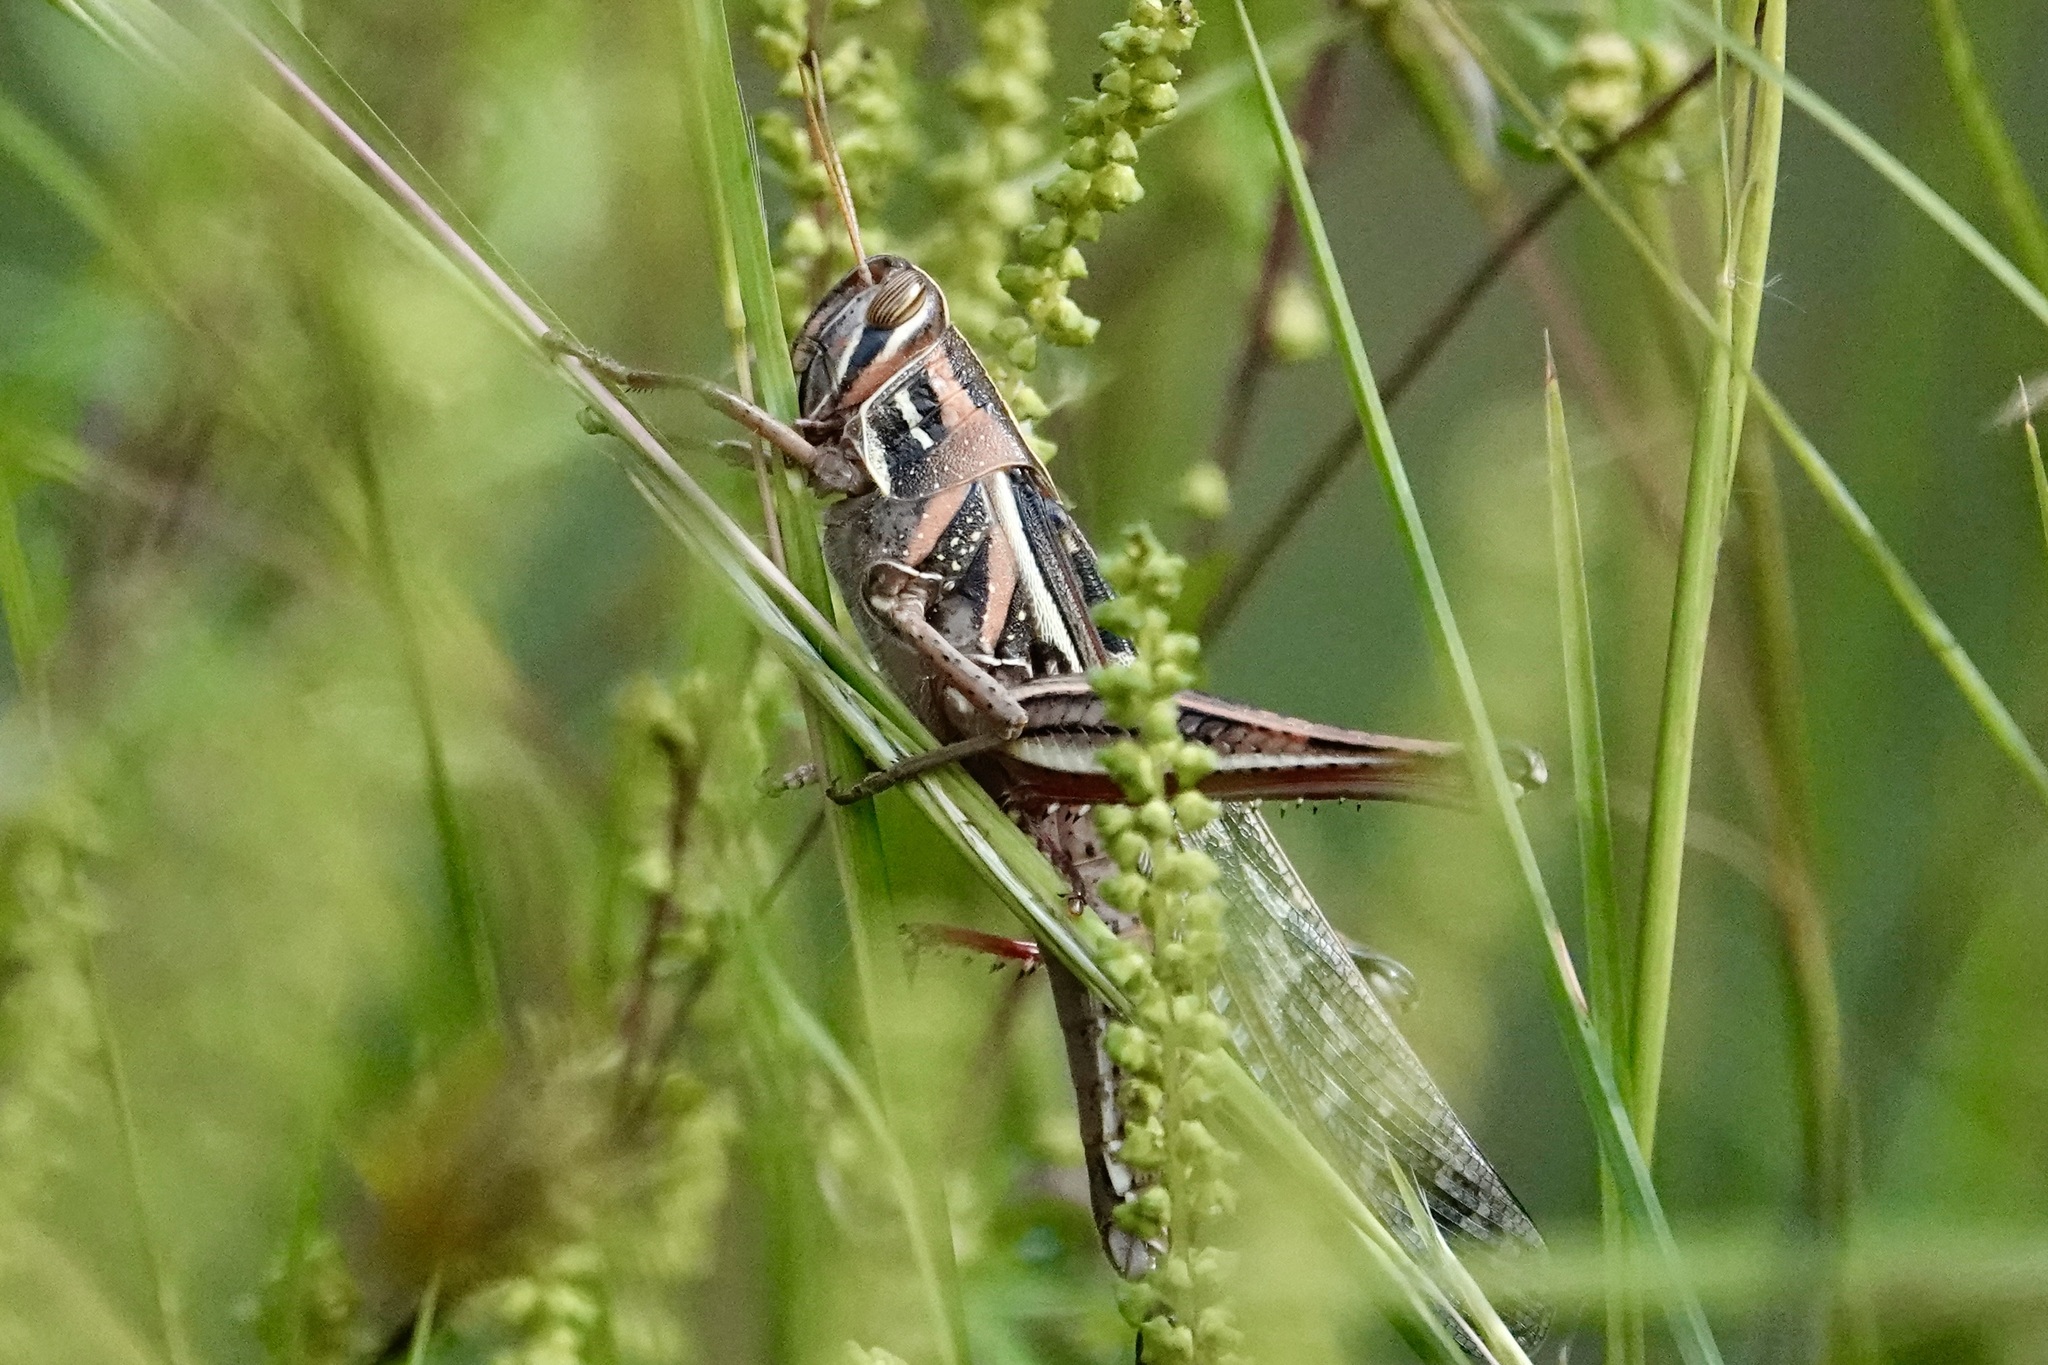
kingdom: Animalia
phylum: Arthropoda
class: Insecta
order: Orthoptera
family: Acrididae
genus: Schistocerca
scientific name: Schistocerca americana
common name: American bird locust
